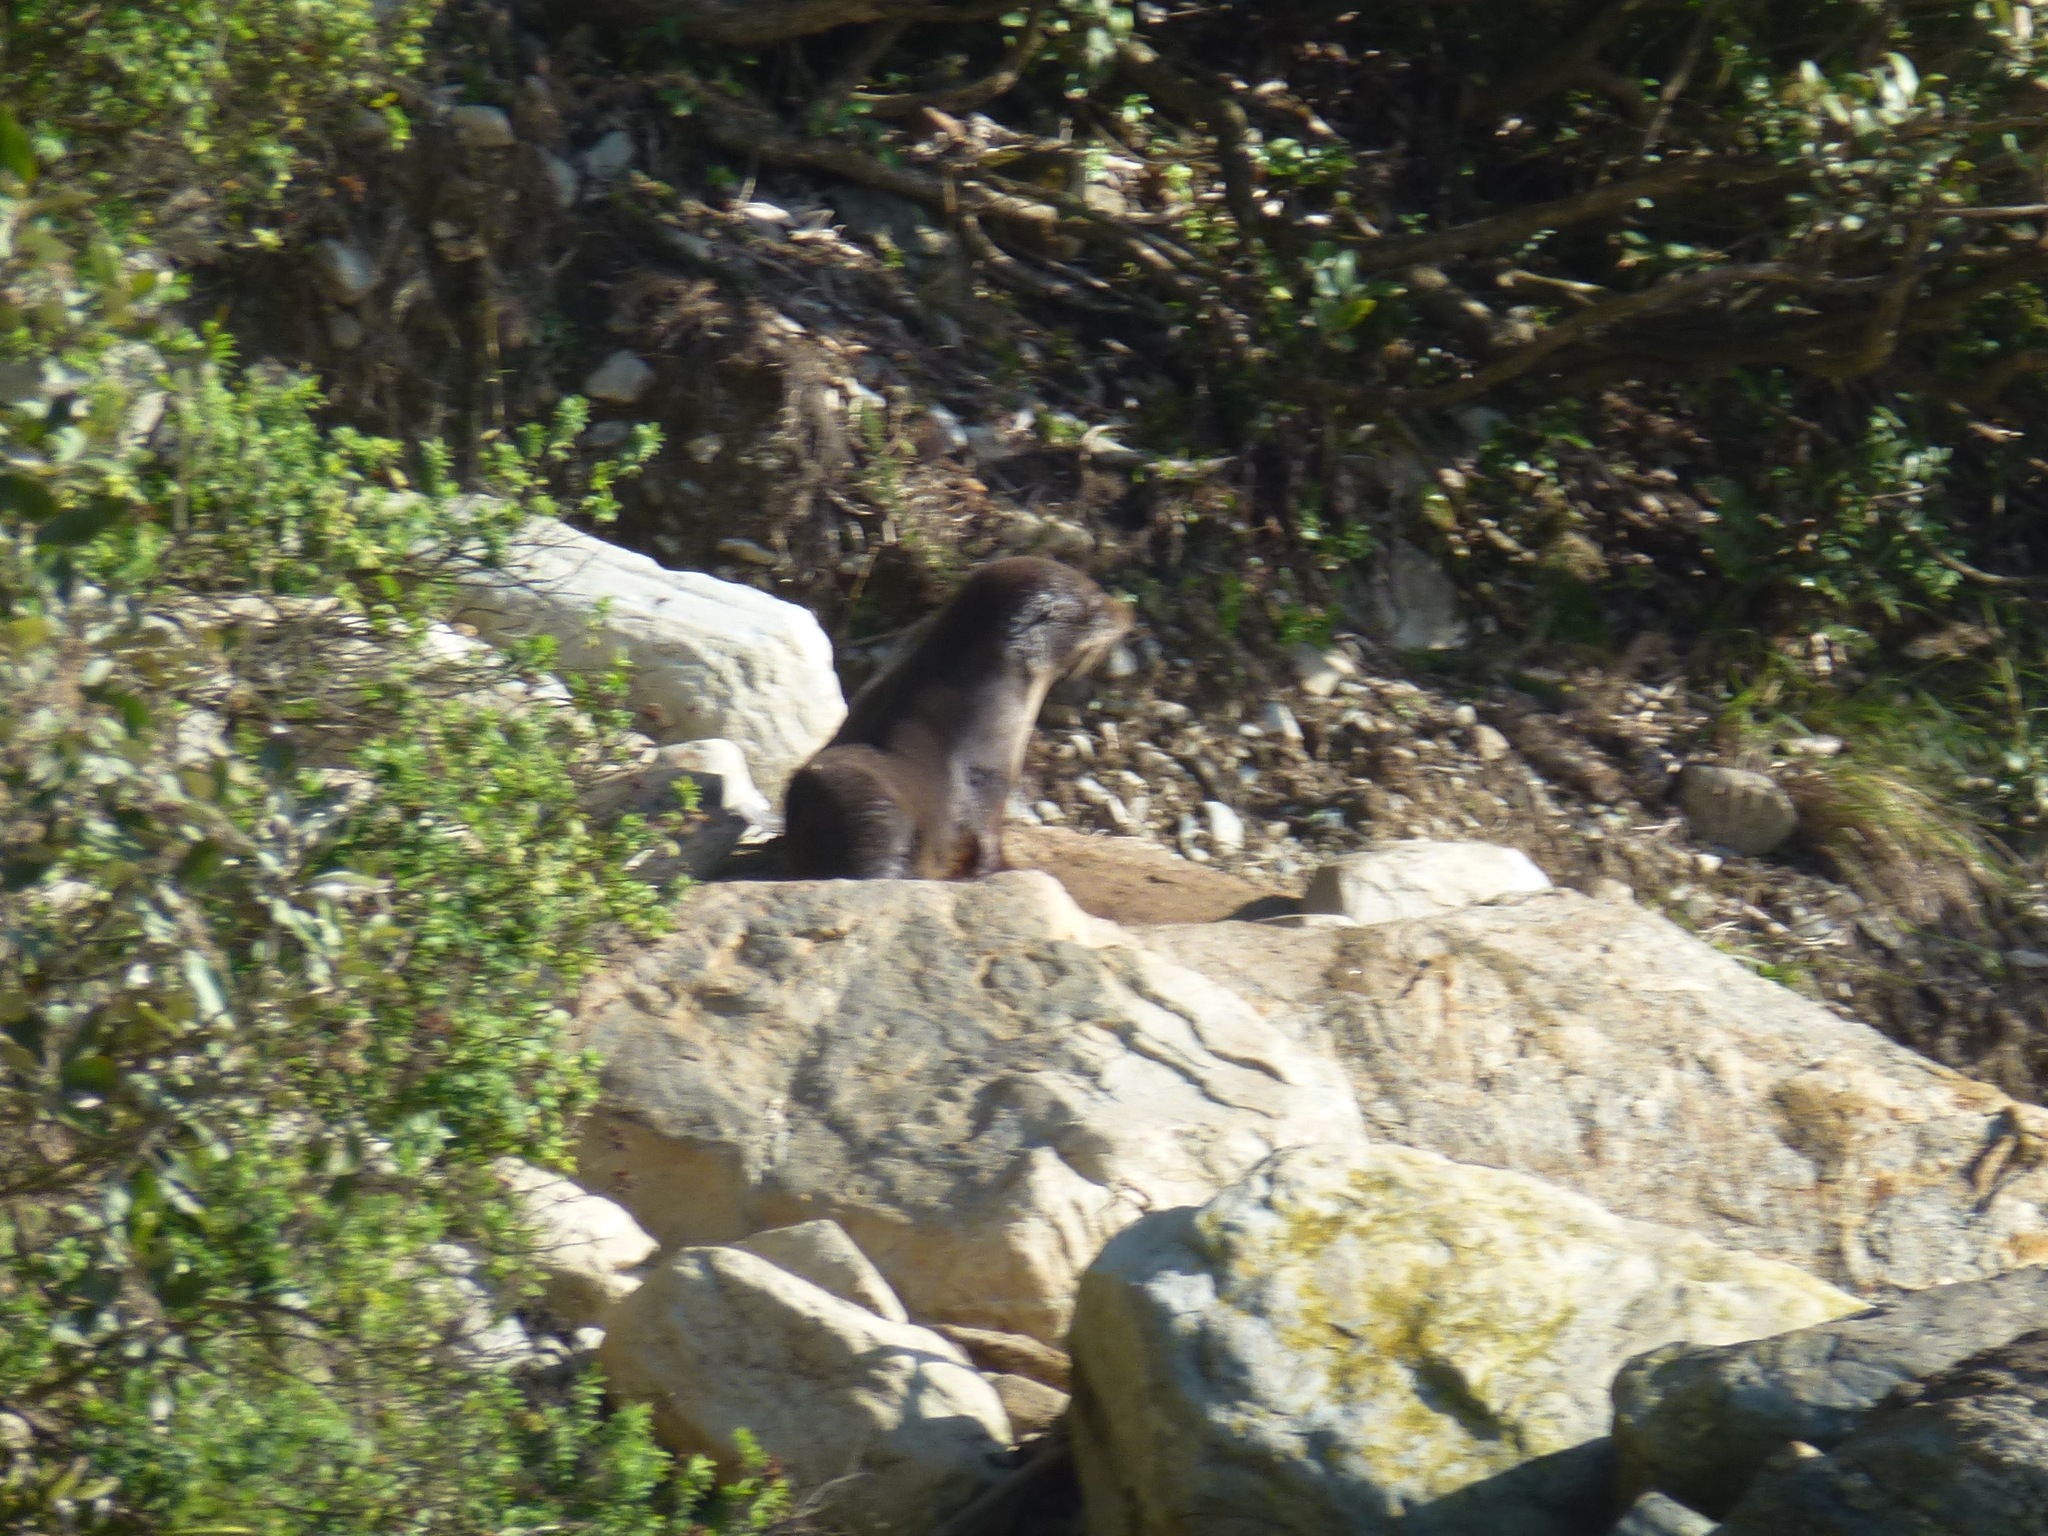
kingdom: Animalia
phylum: Chordata
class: Mammalia
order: Carnivora
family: Otariidae
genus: Arctocephalus
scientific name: Arctocephalus forsteri
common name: New zealand fur seal
